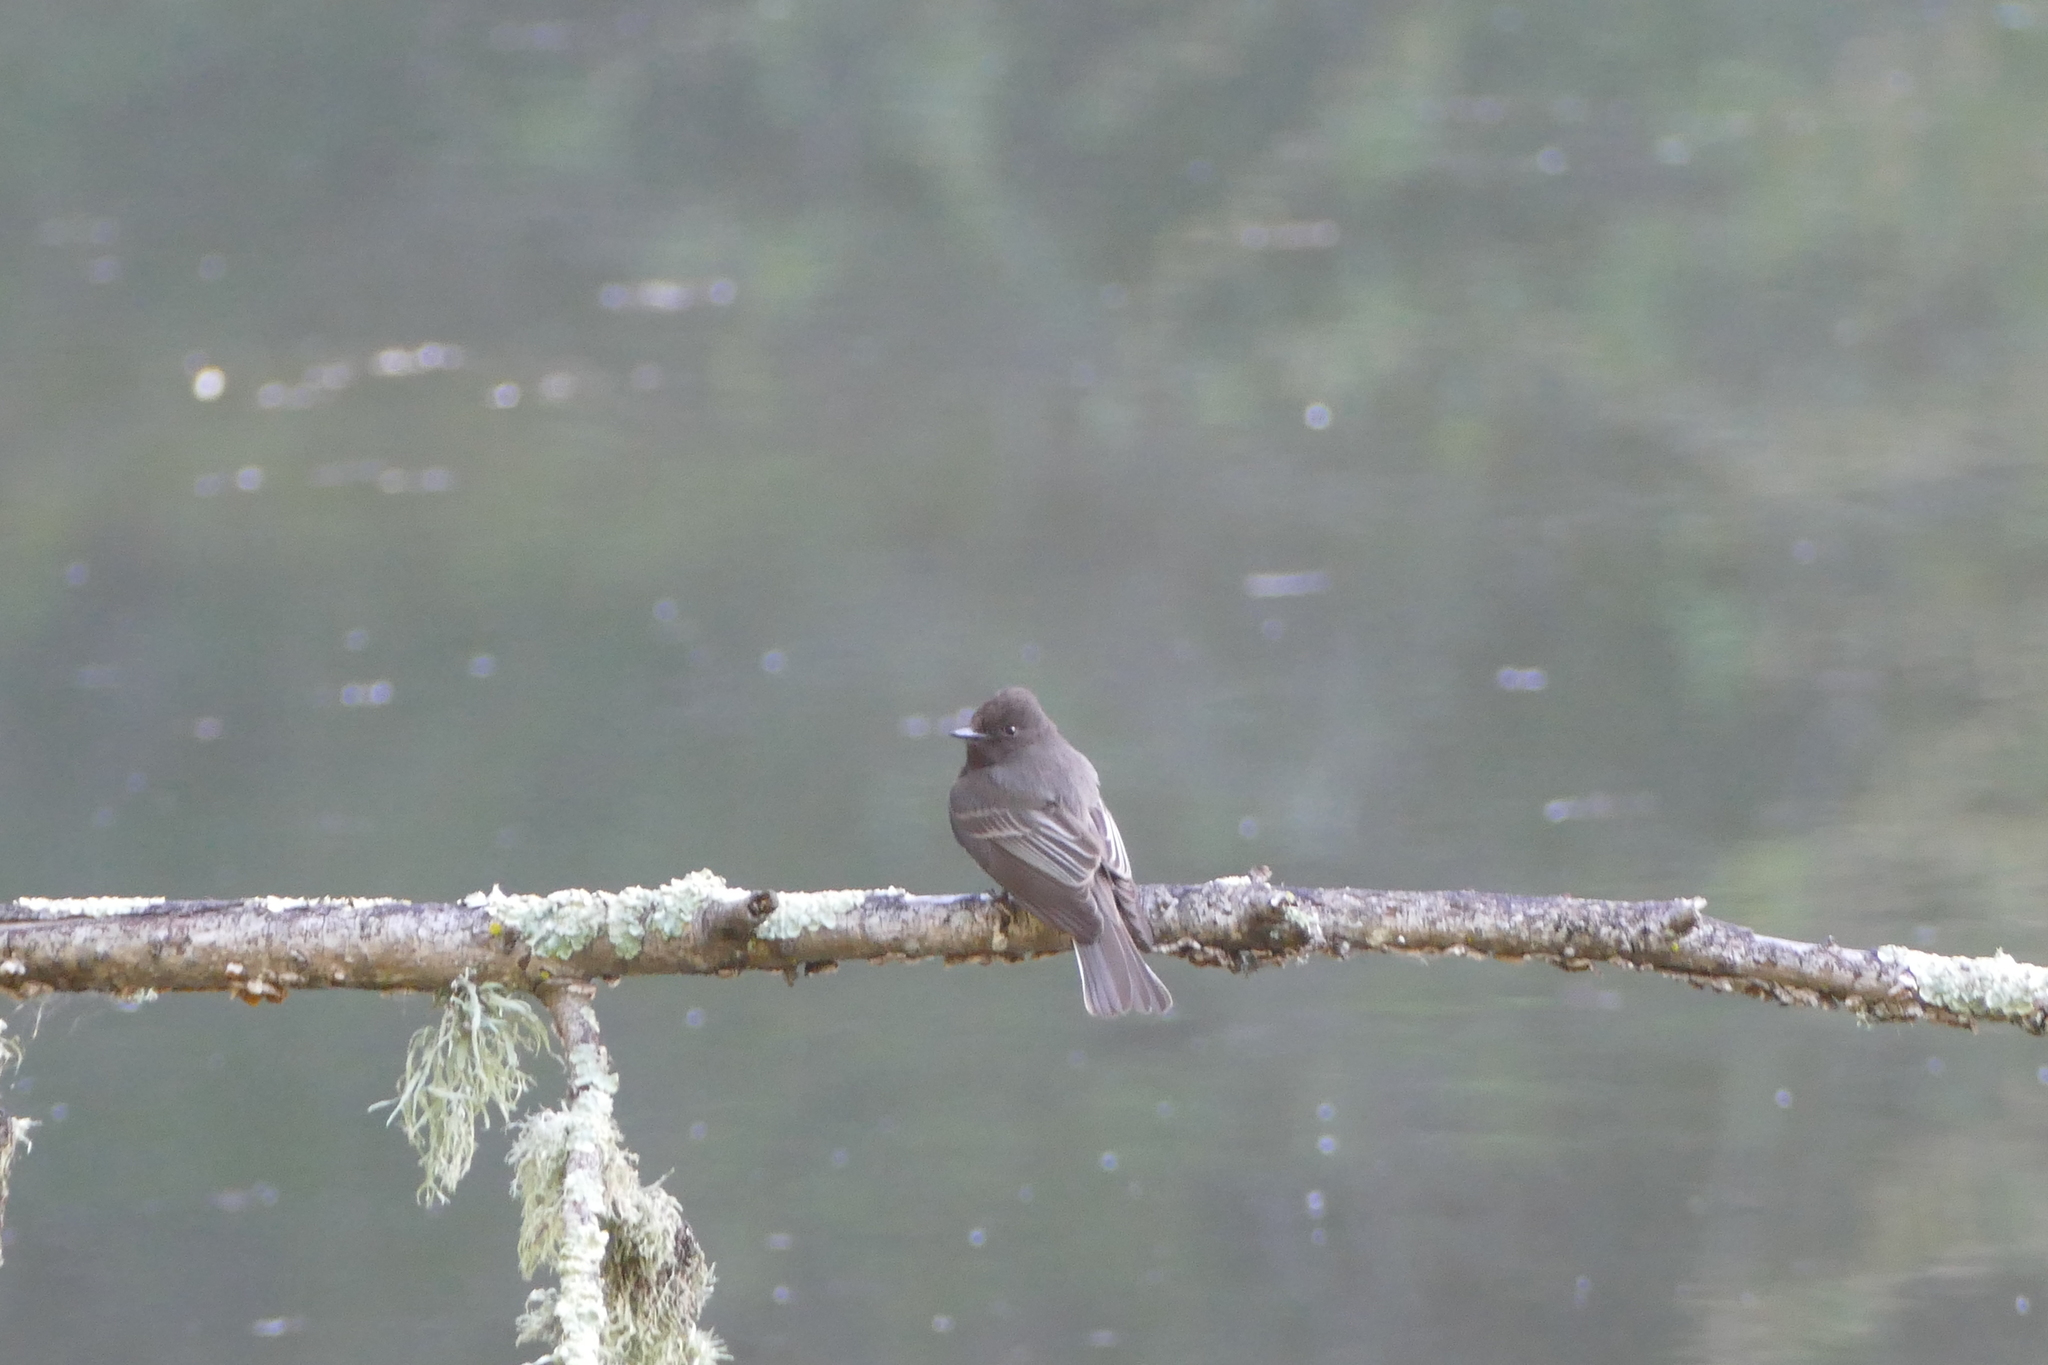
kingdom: Animalia
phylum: Chordata
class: Aves
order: Passeriformes
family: Tyrannidae
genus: Sayornis
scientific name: Sayornis nigricans
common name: Black phoebe
